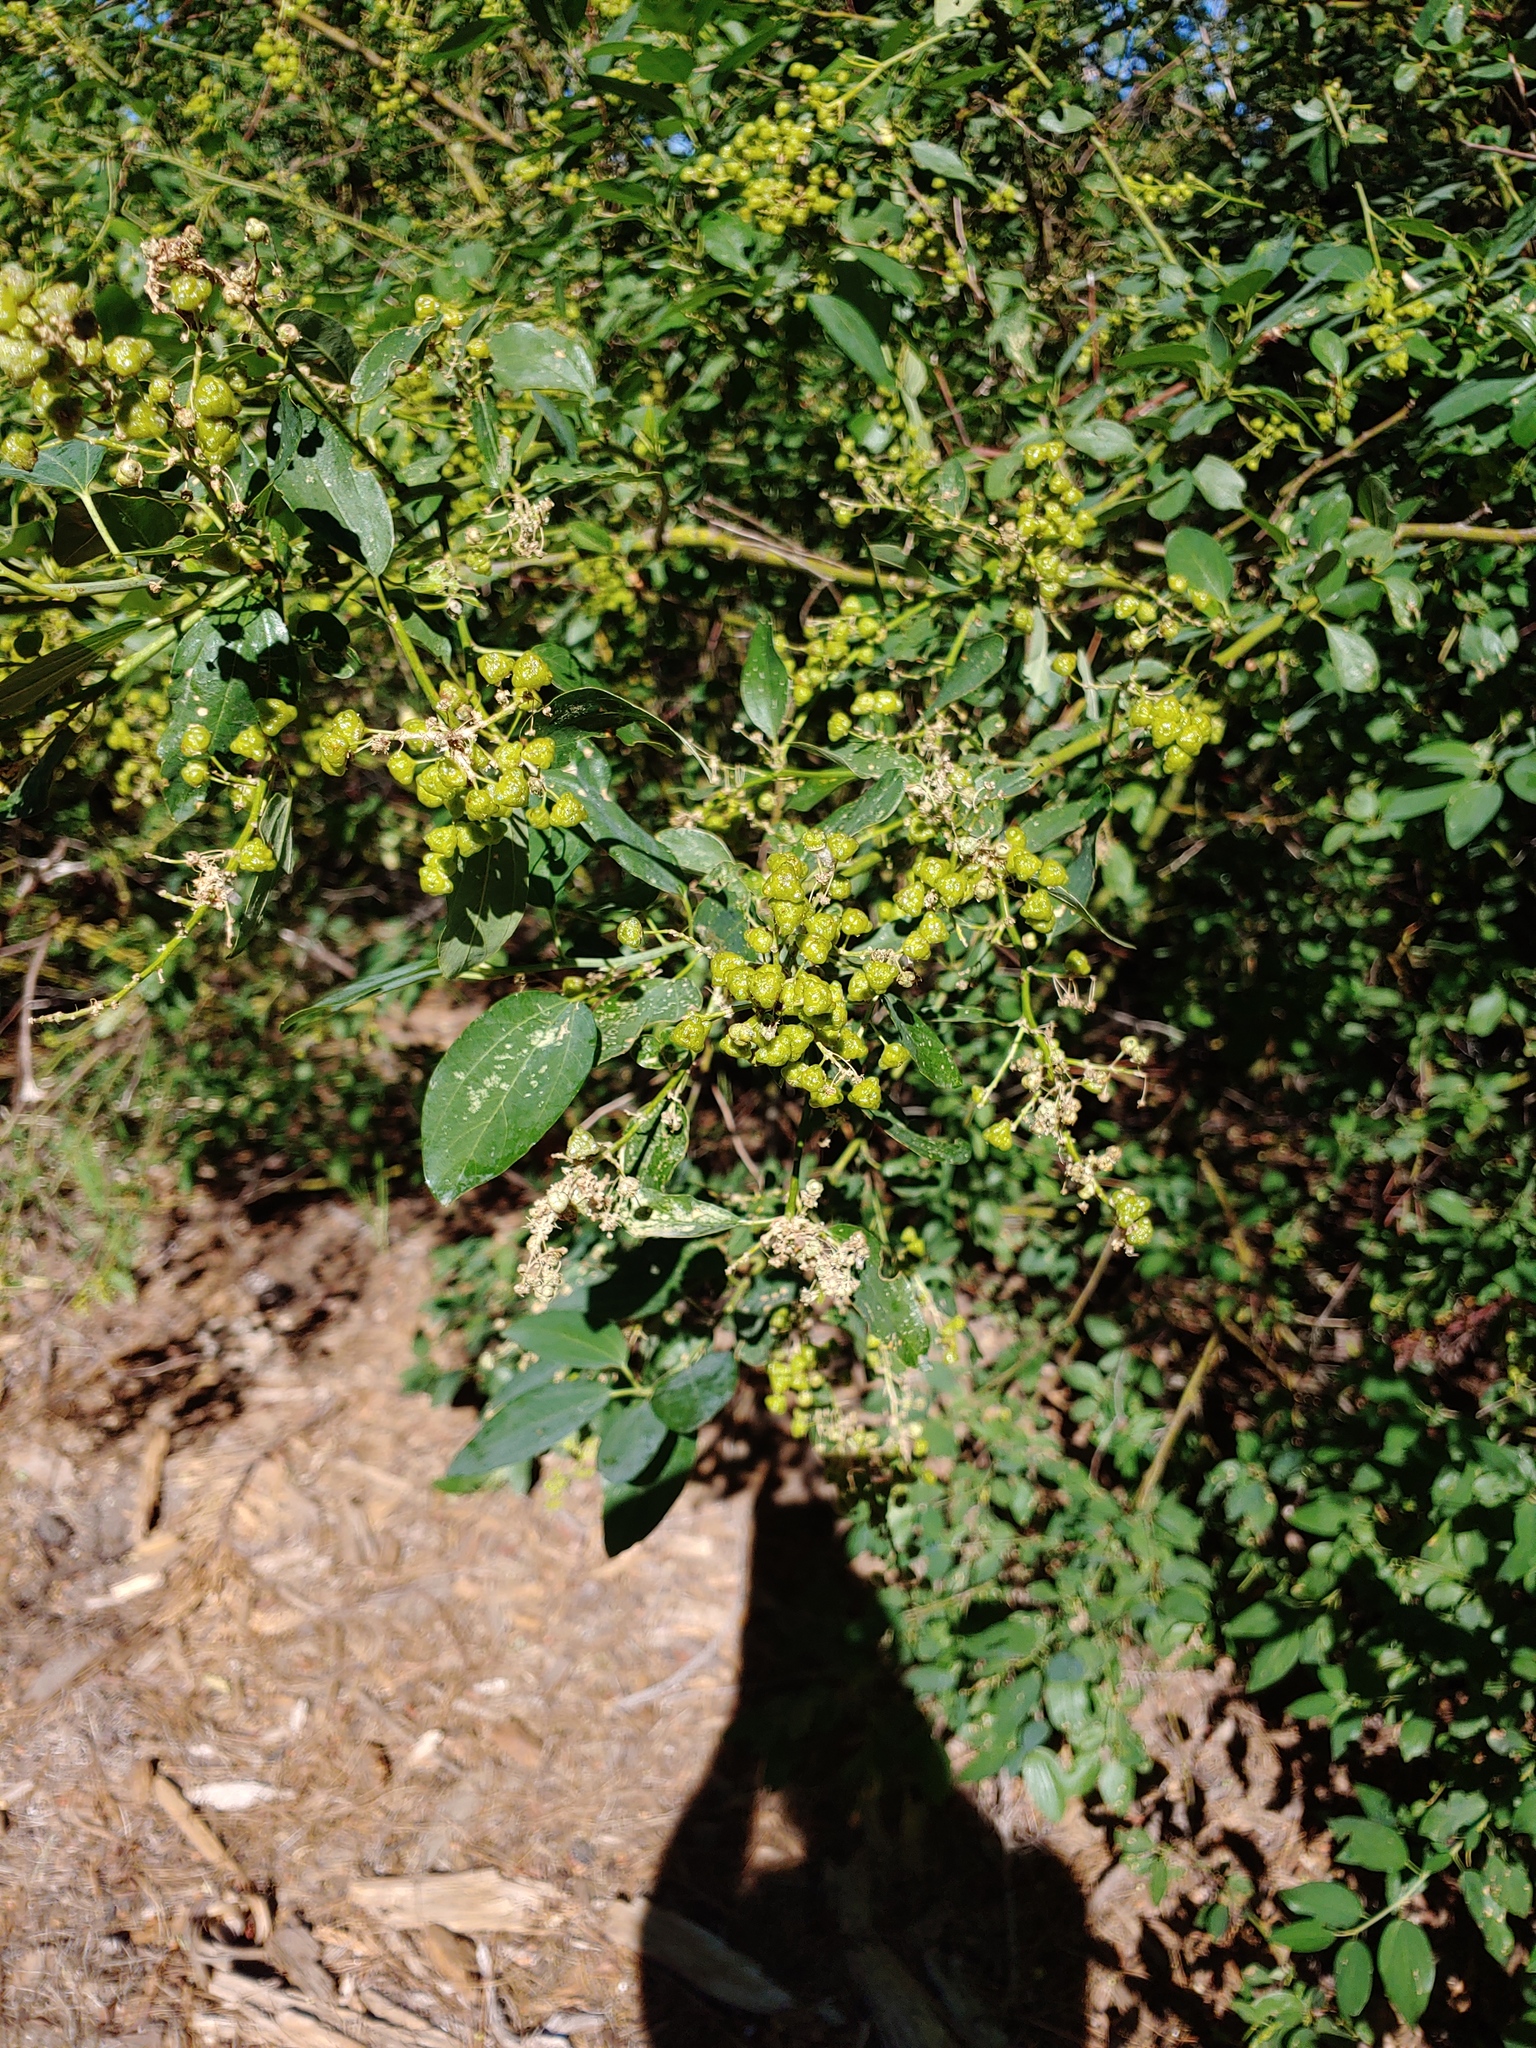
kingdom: Plantae
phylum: Tracheophyta
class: Magnoliopsida
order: Rosales
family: Rhamnaceae
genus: Ceanothus
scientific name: Ceanothus integerrimus
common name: Deerbrush ceanothus
